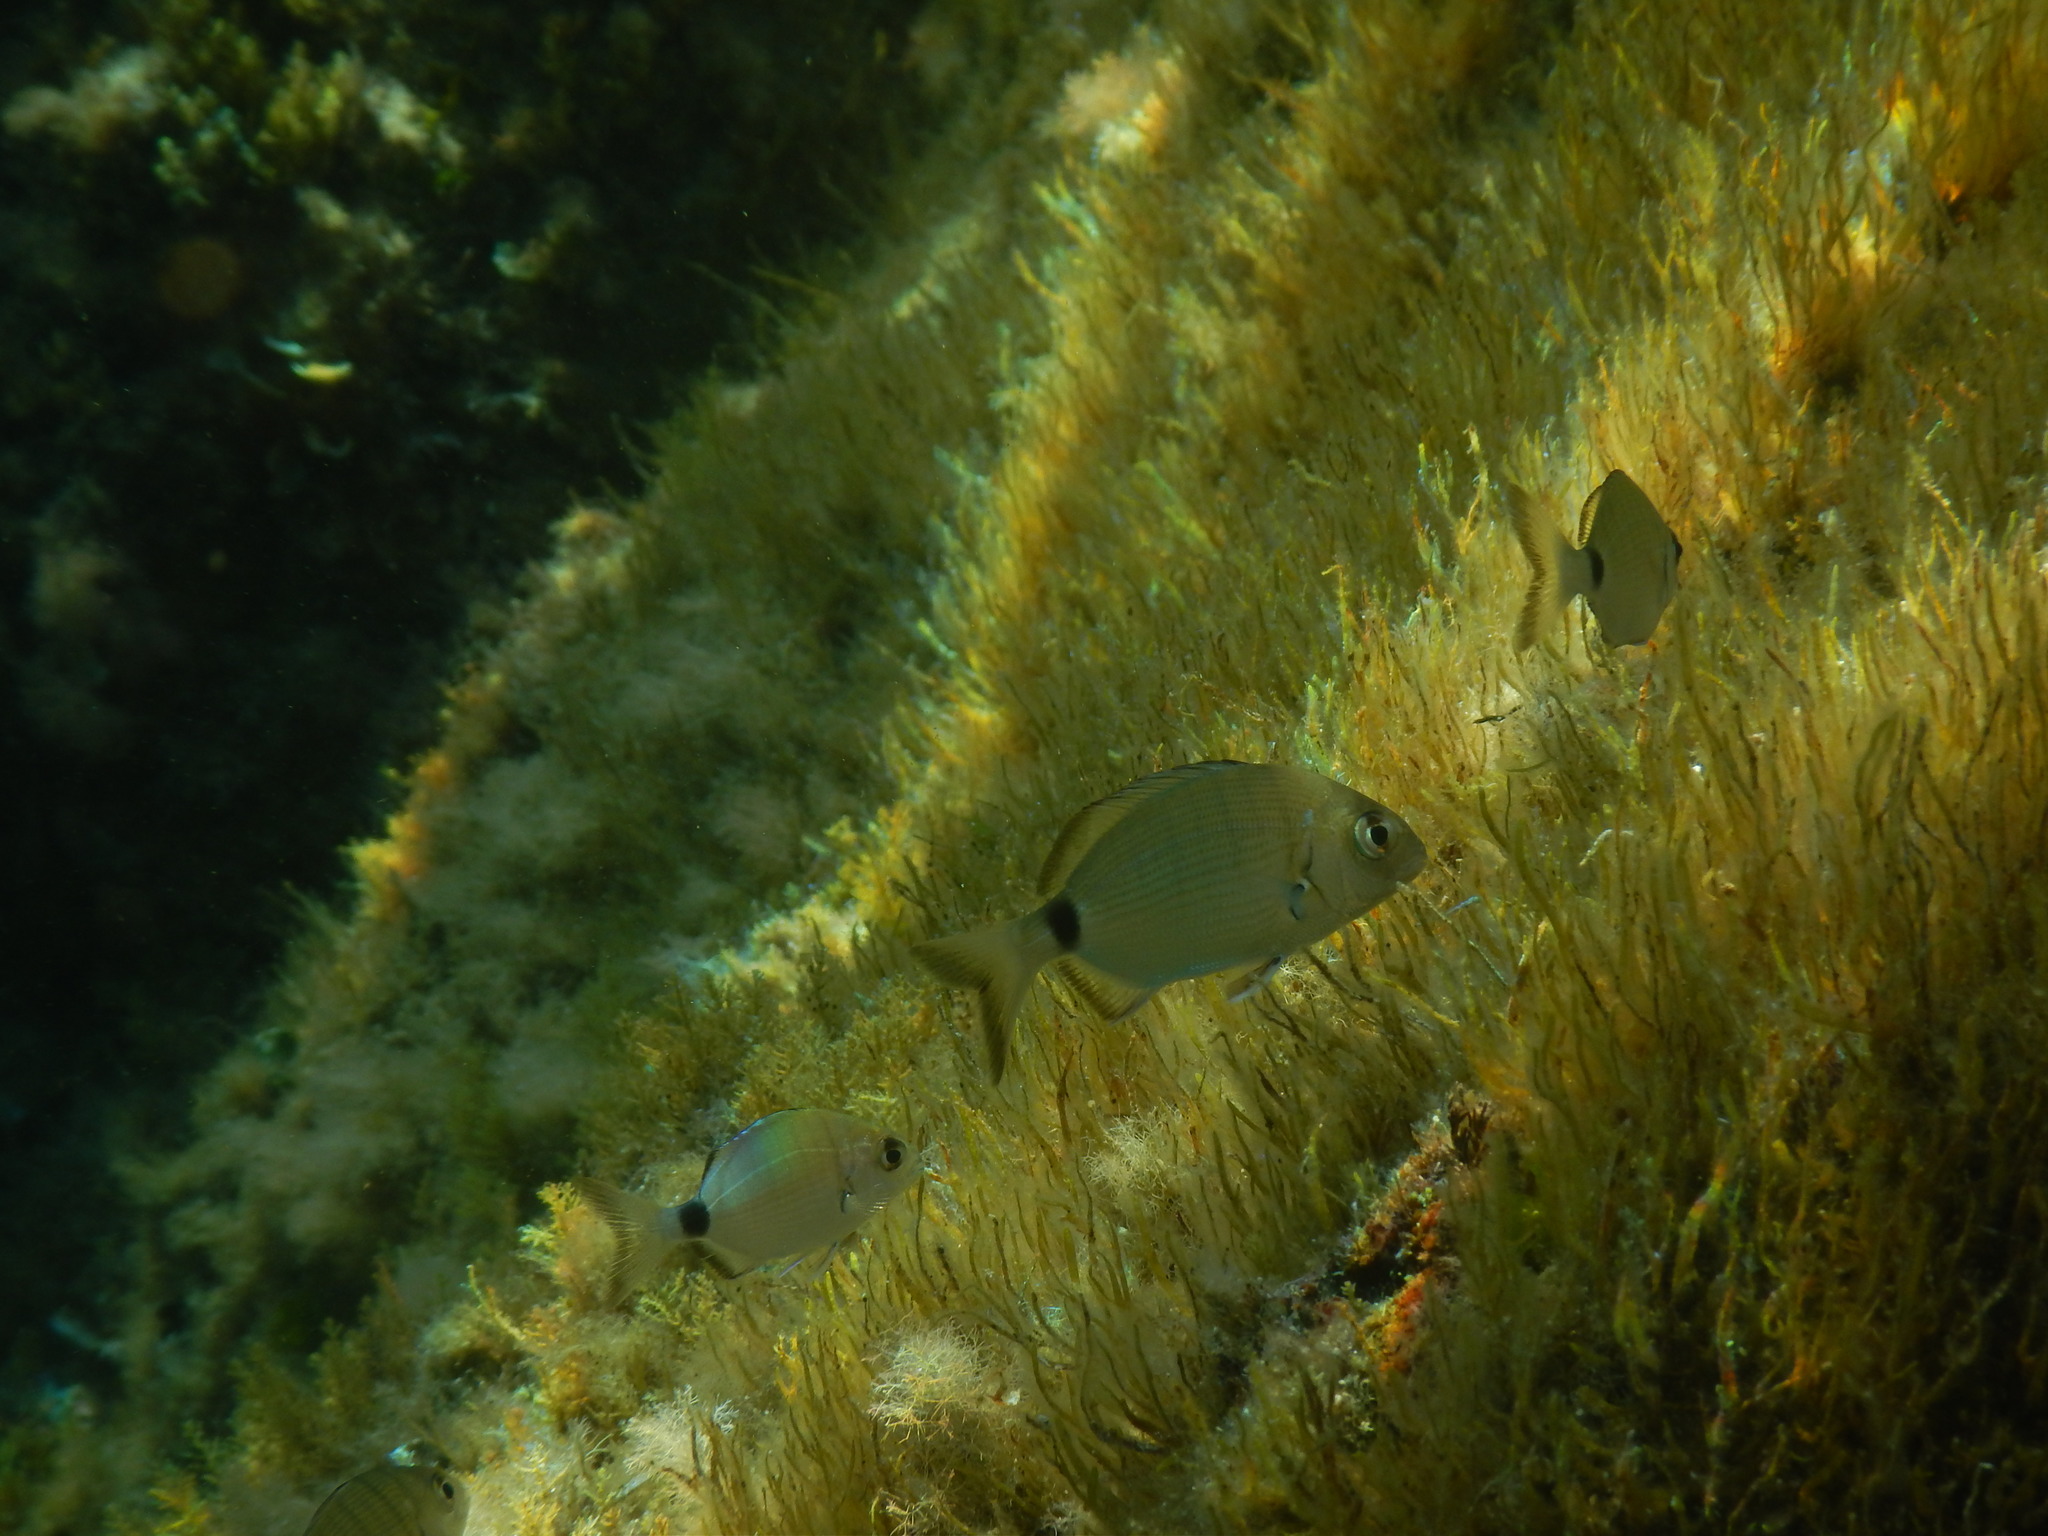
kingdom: Animalia
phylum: Chordata
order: Perciformes
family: Sparidae
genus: Diplodus
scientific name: Diplodus sargus
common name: White seabream
